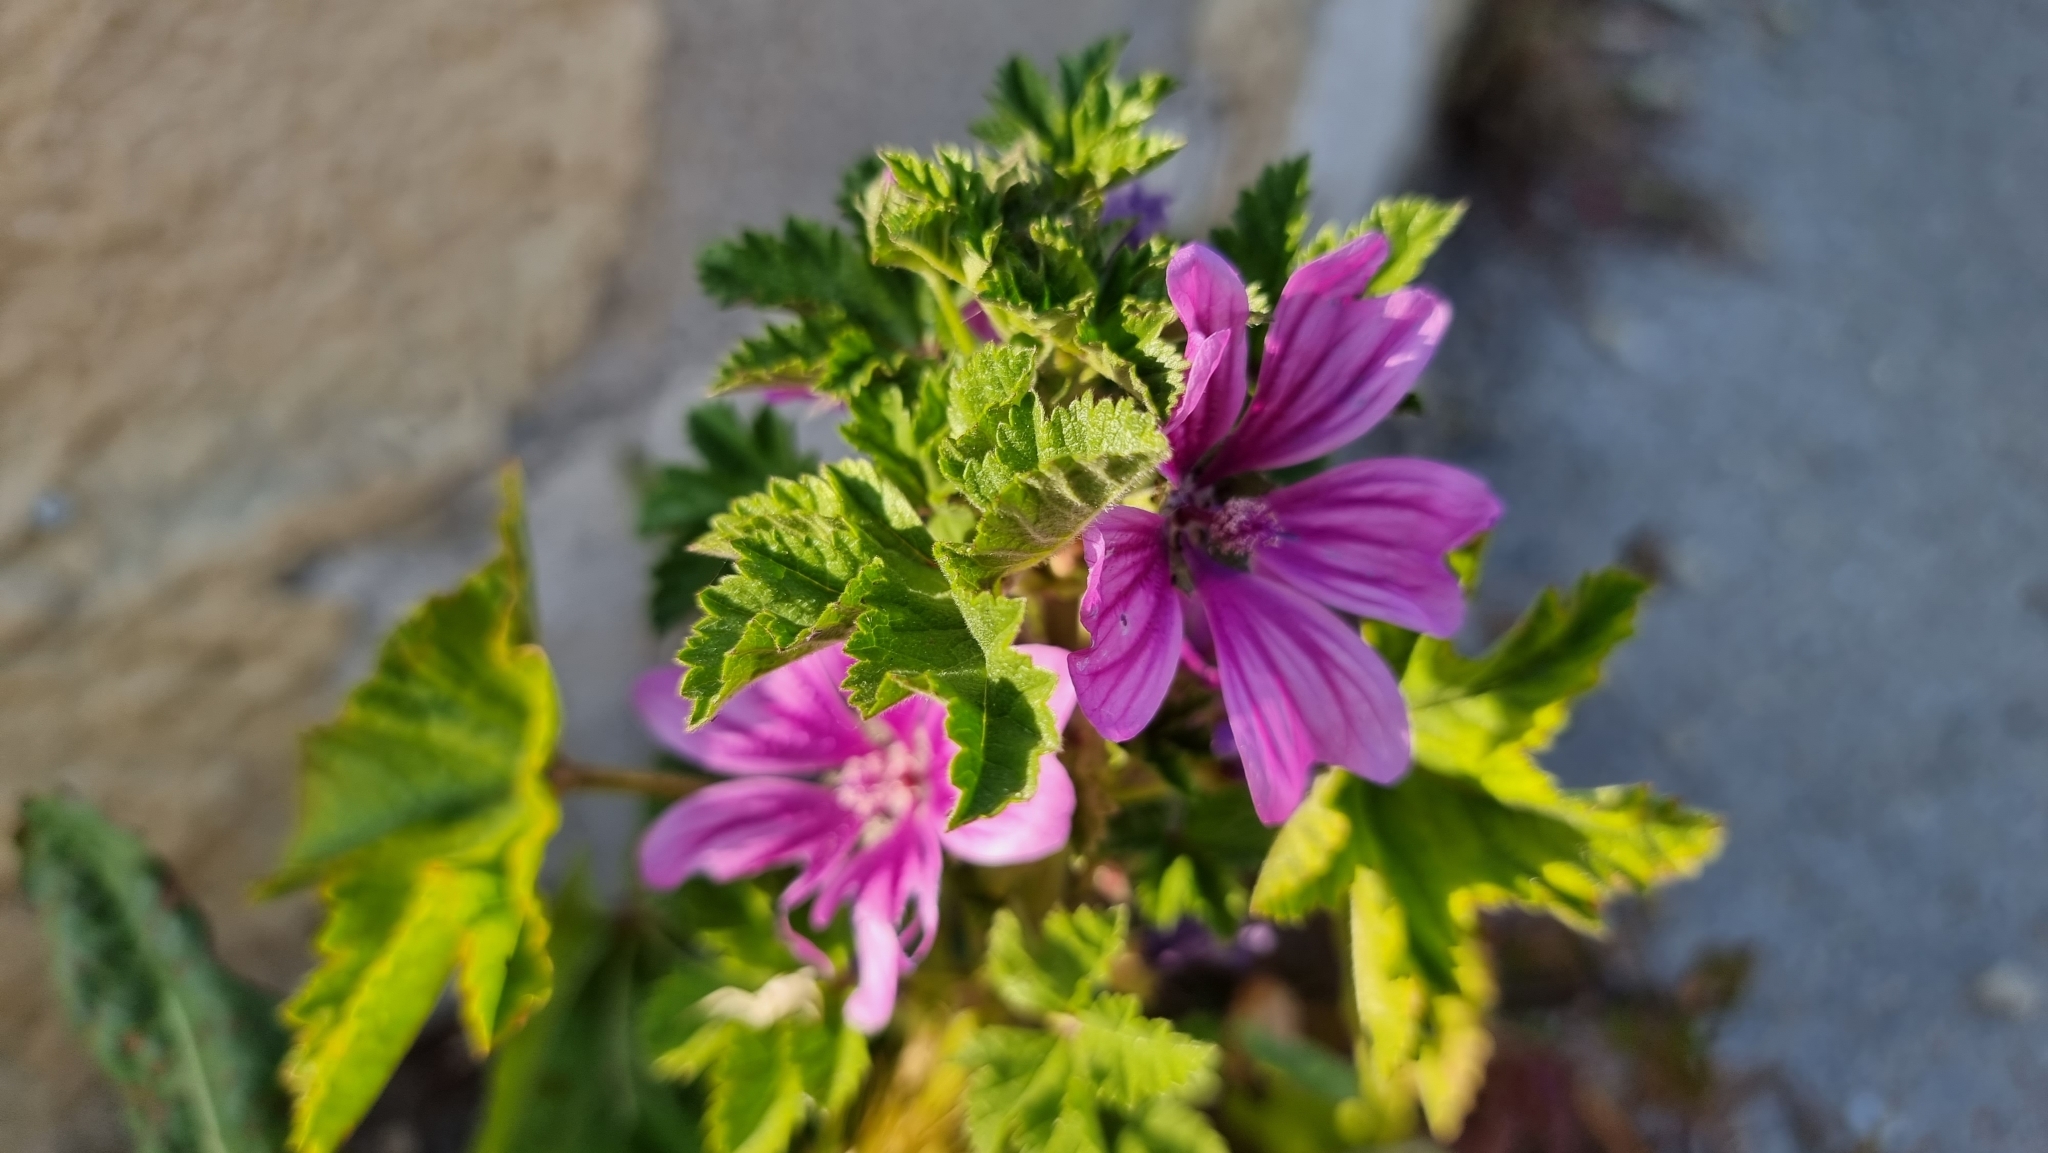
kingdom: Plantae
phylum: Tracheophyta
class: Magnoliopsida
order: Malvales
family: Malvaceae
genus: Malva
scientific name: Malva sylvestris
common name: Common mallow
